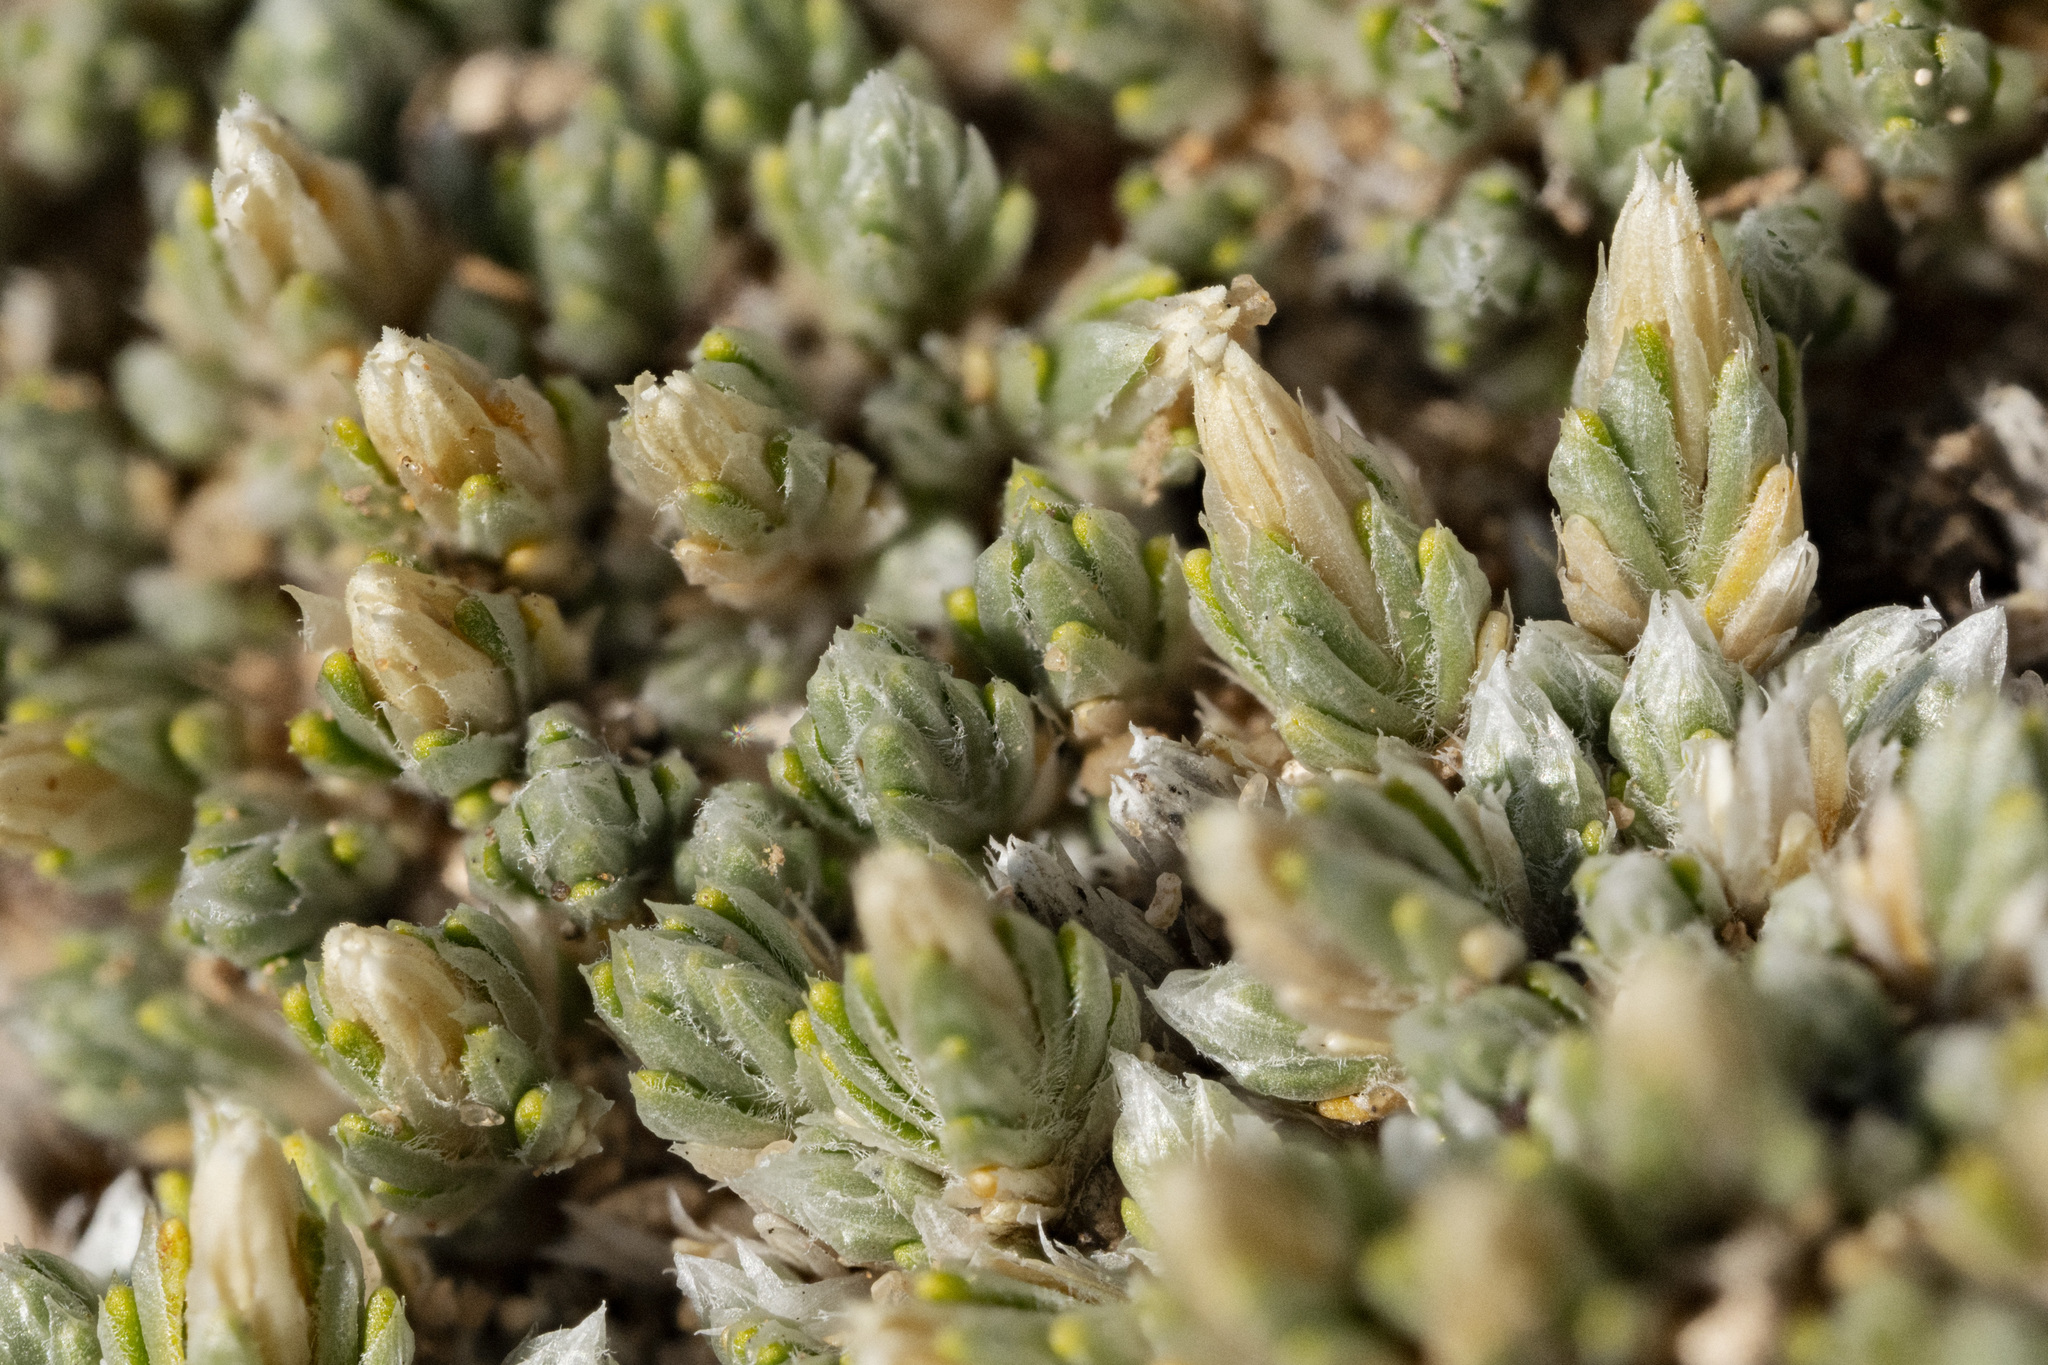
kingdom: Plantae
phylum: Tracheophyta
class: Magnoliopsida
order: Caryophyllales
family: Caryophyllaceae
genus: Paronychia
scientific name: Paronychia sessiliflora
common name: Creeping nailwort
